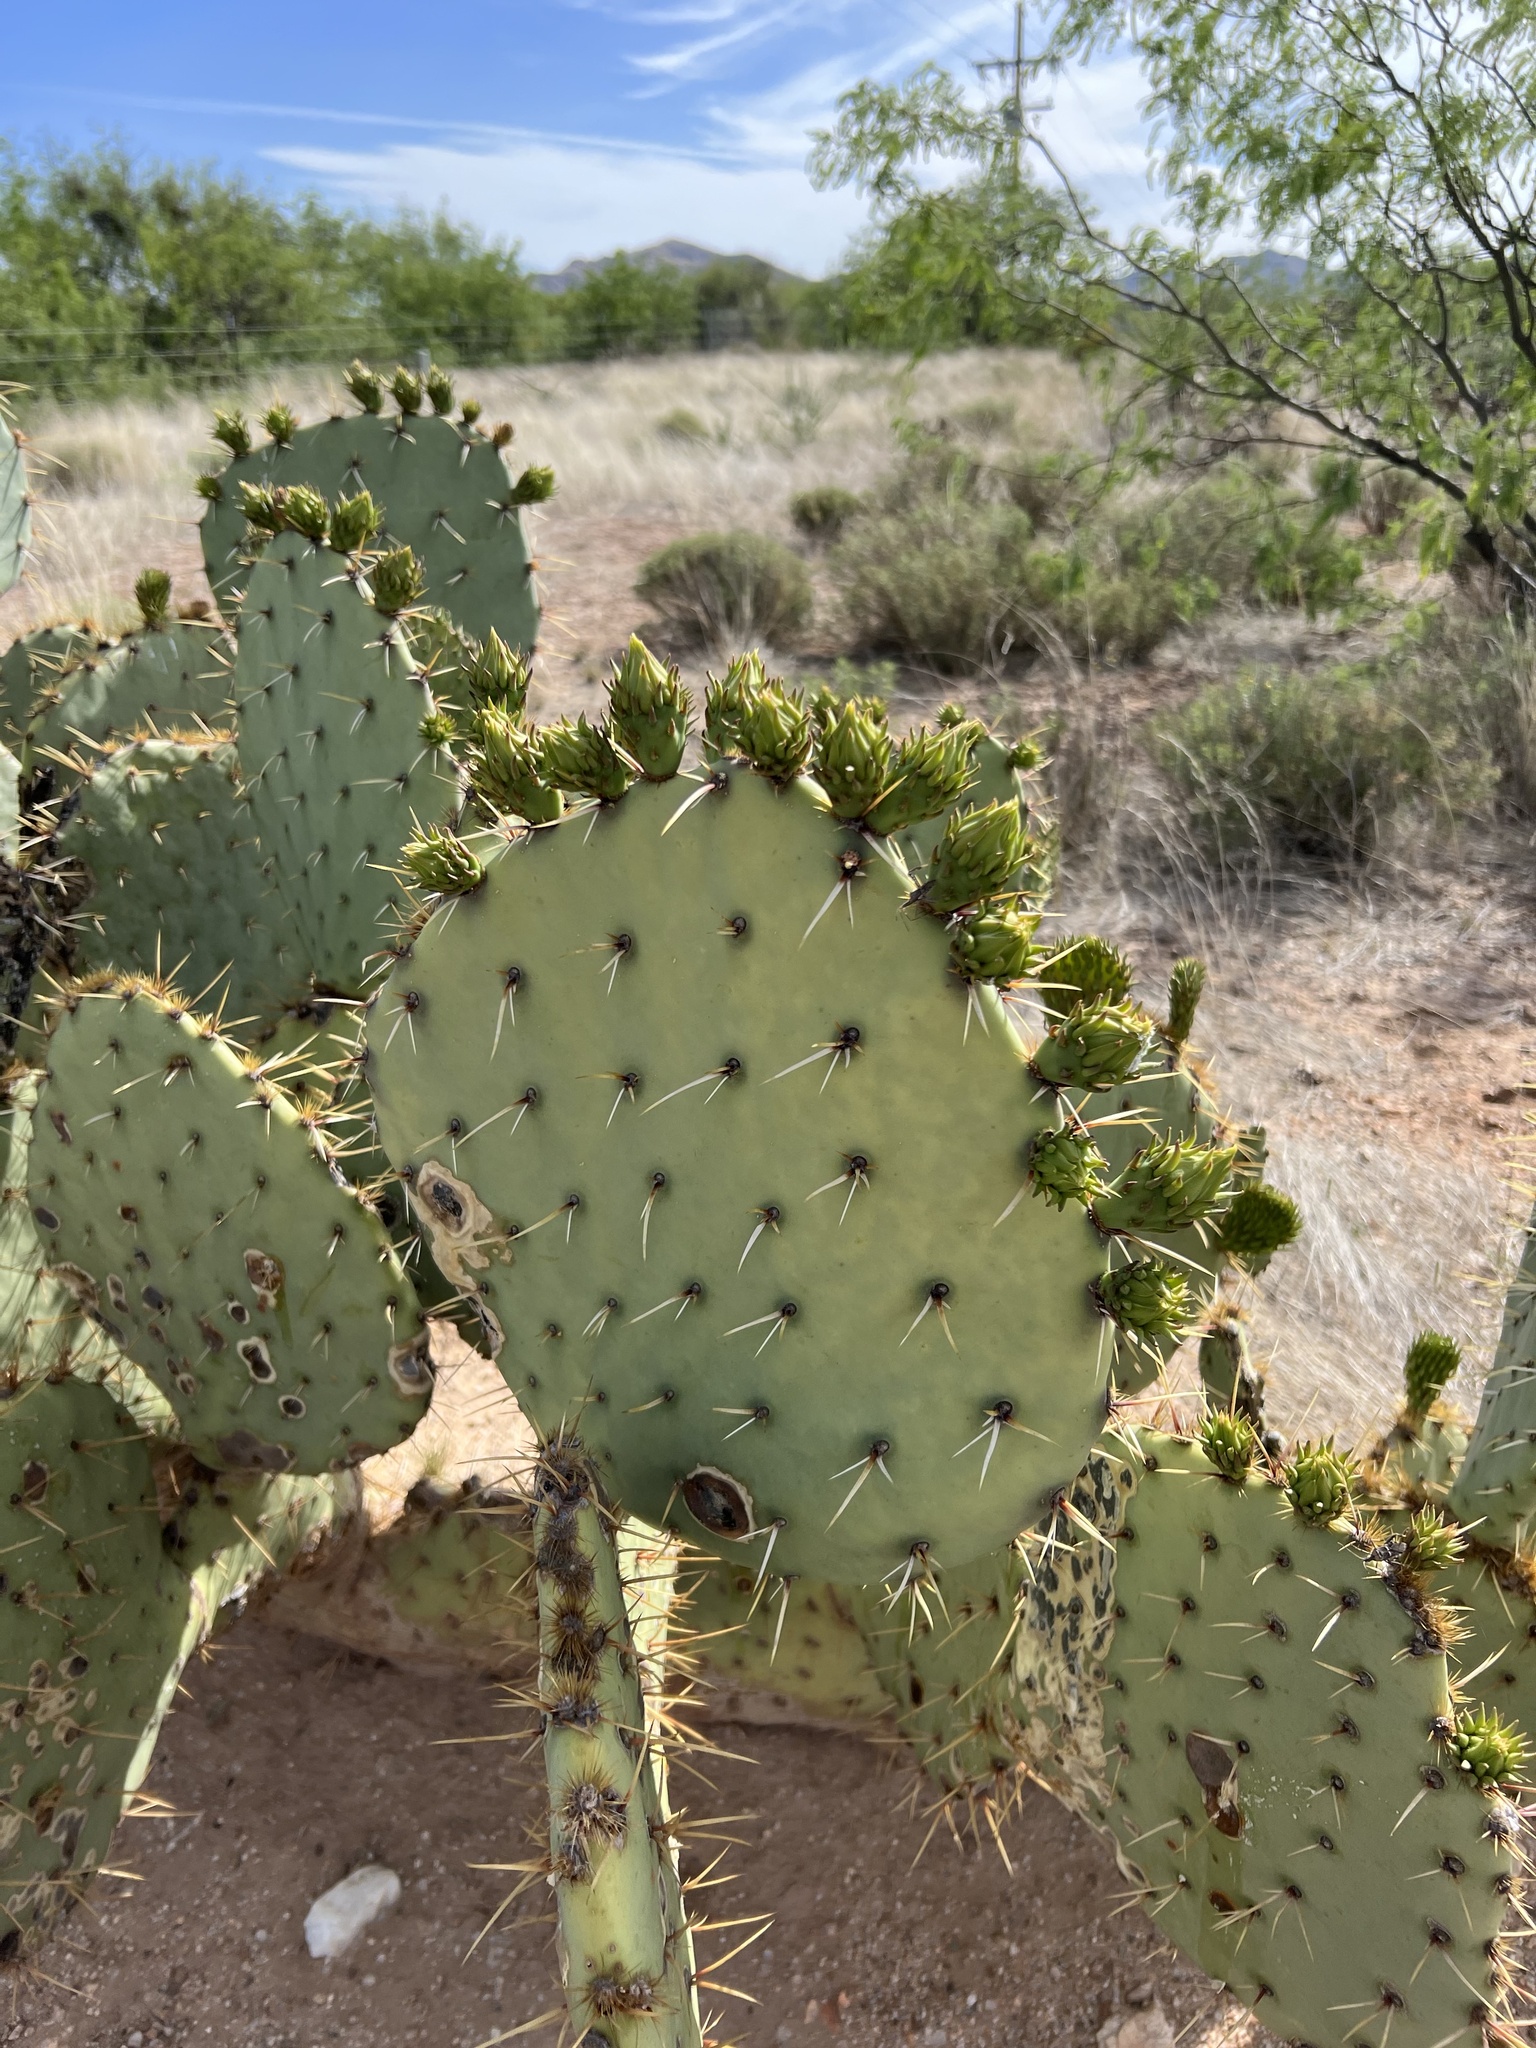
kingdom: Plantae
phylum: Tracheophyta
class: Magnoliopsida
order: Caryophyllales
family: Cactaceae
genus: Opuntia
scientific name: Opuntia engelmannii
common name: Cactus-apple
